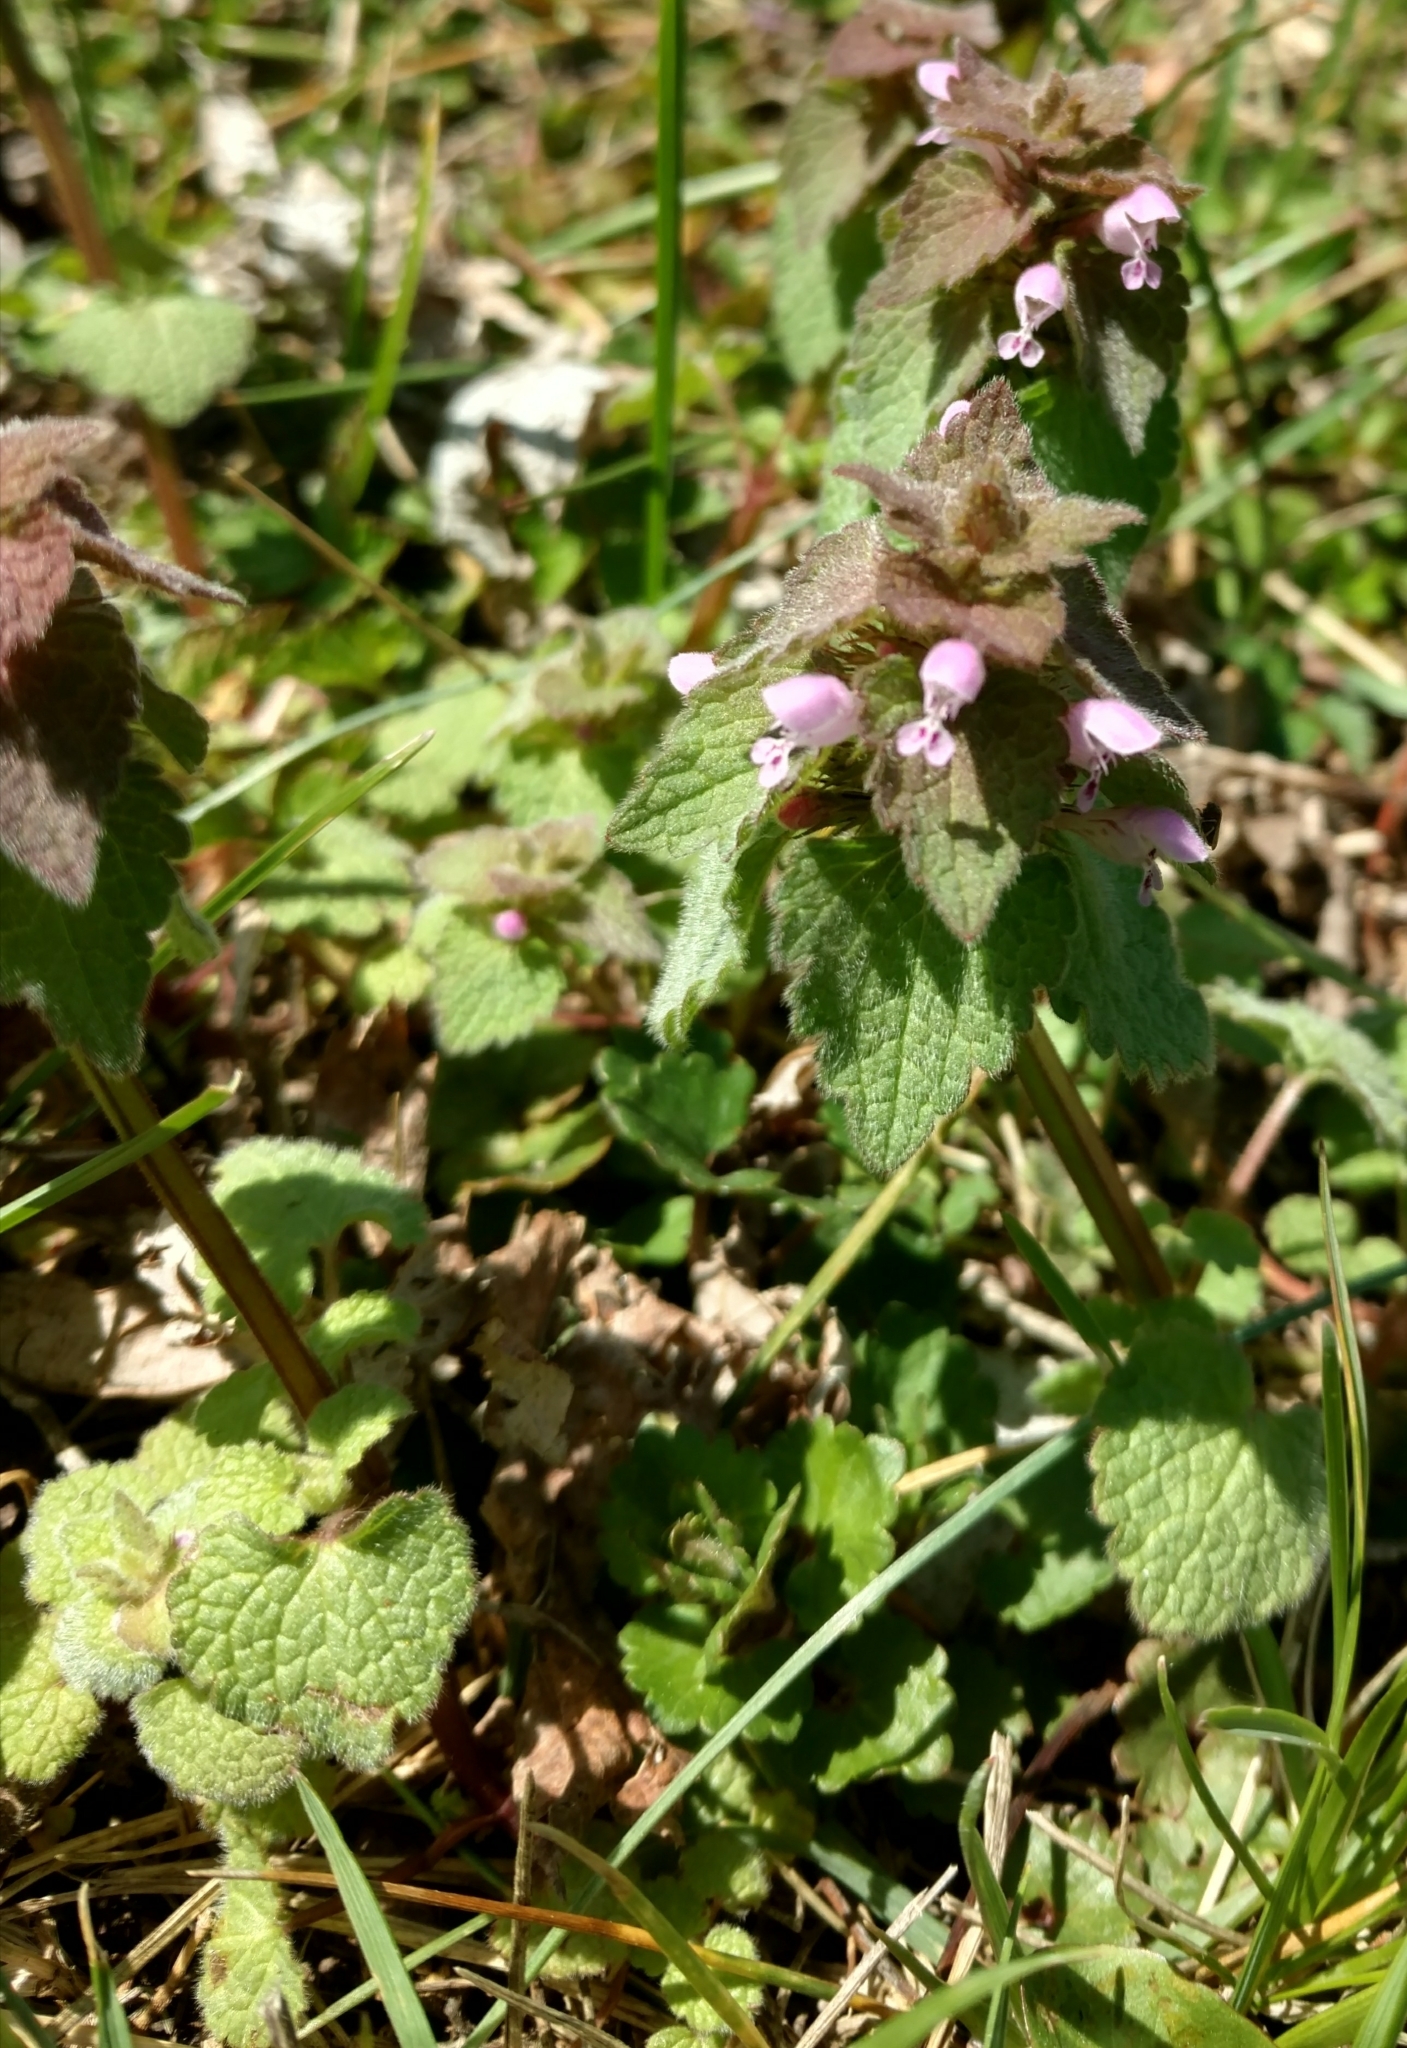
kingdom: Plantae
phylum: Tracheophyta
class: Magnoliopsida
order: Lamiales
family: Lamiaceae
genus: Lamium
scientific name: Lamium purpureum
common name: Red dead-nettle
